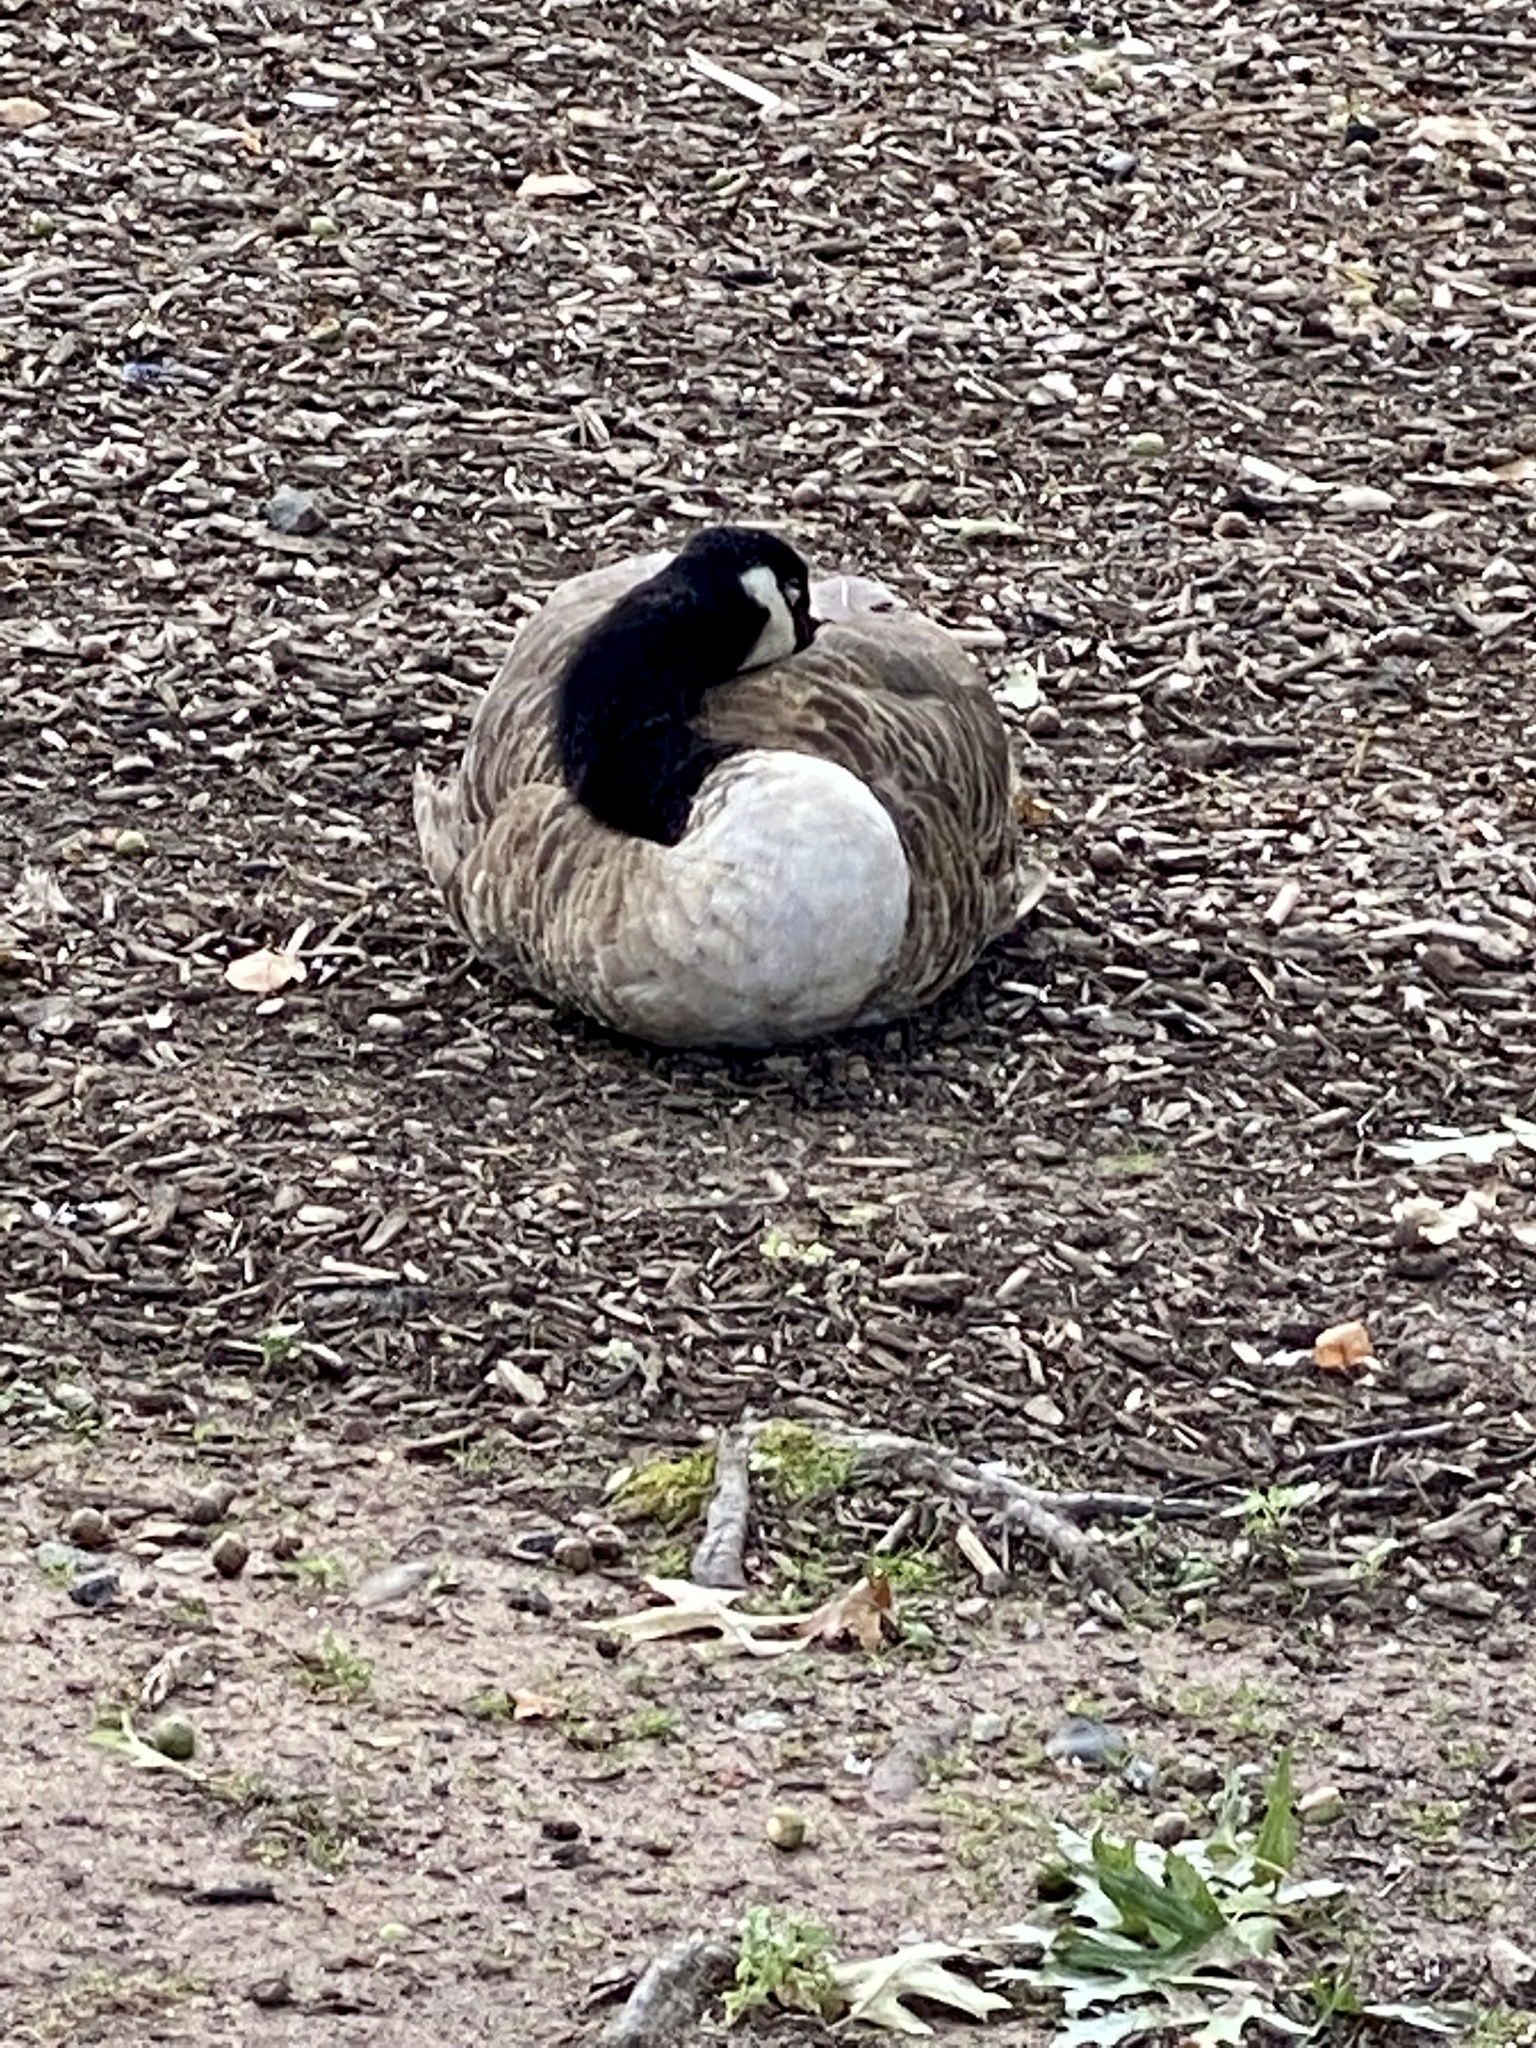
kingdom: Animalia
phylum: Chordata
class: Aves
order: Anseriformes
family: Anatidae
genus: Branta
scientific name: Branta canadensis
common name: Canada goose
